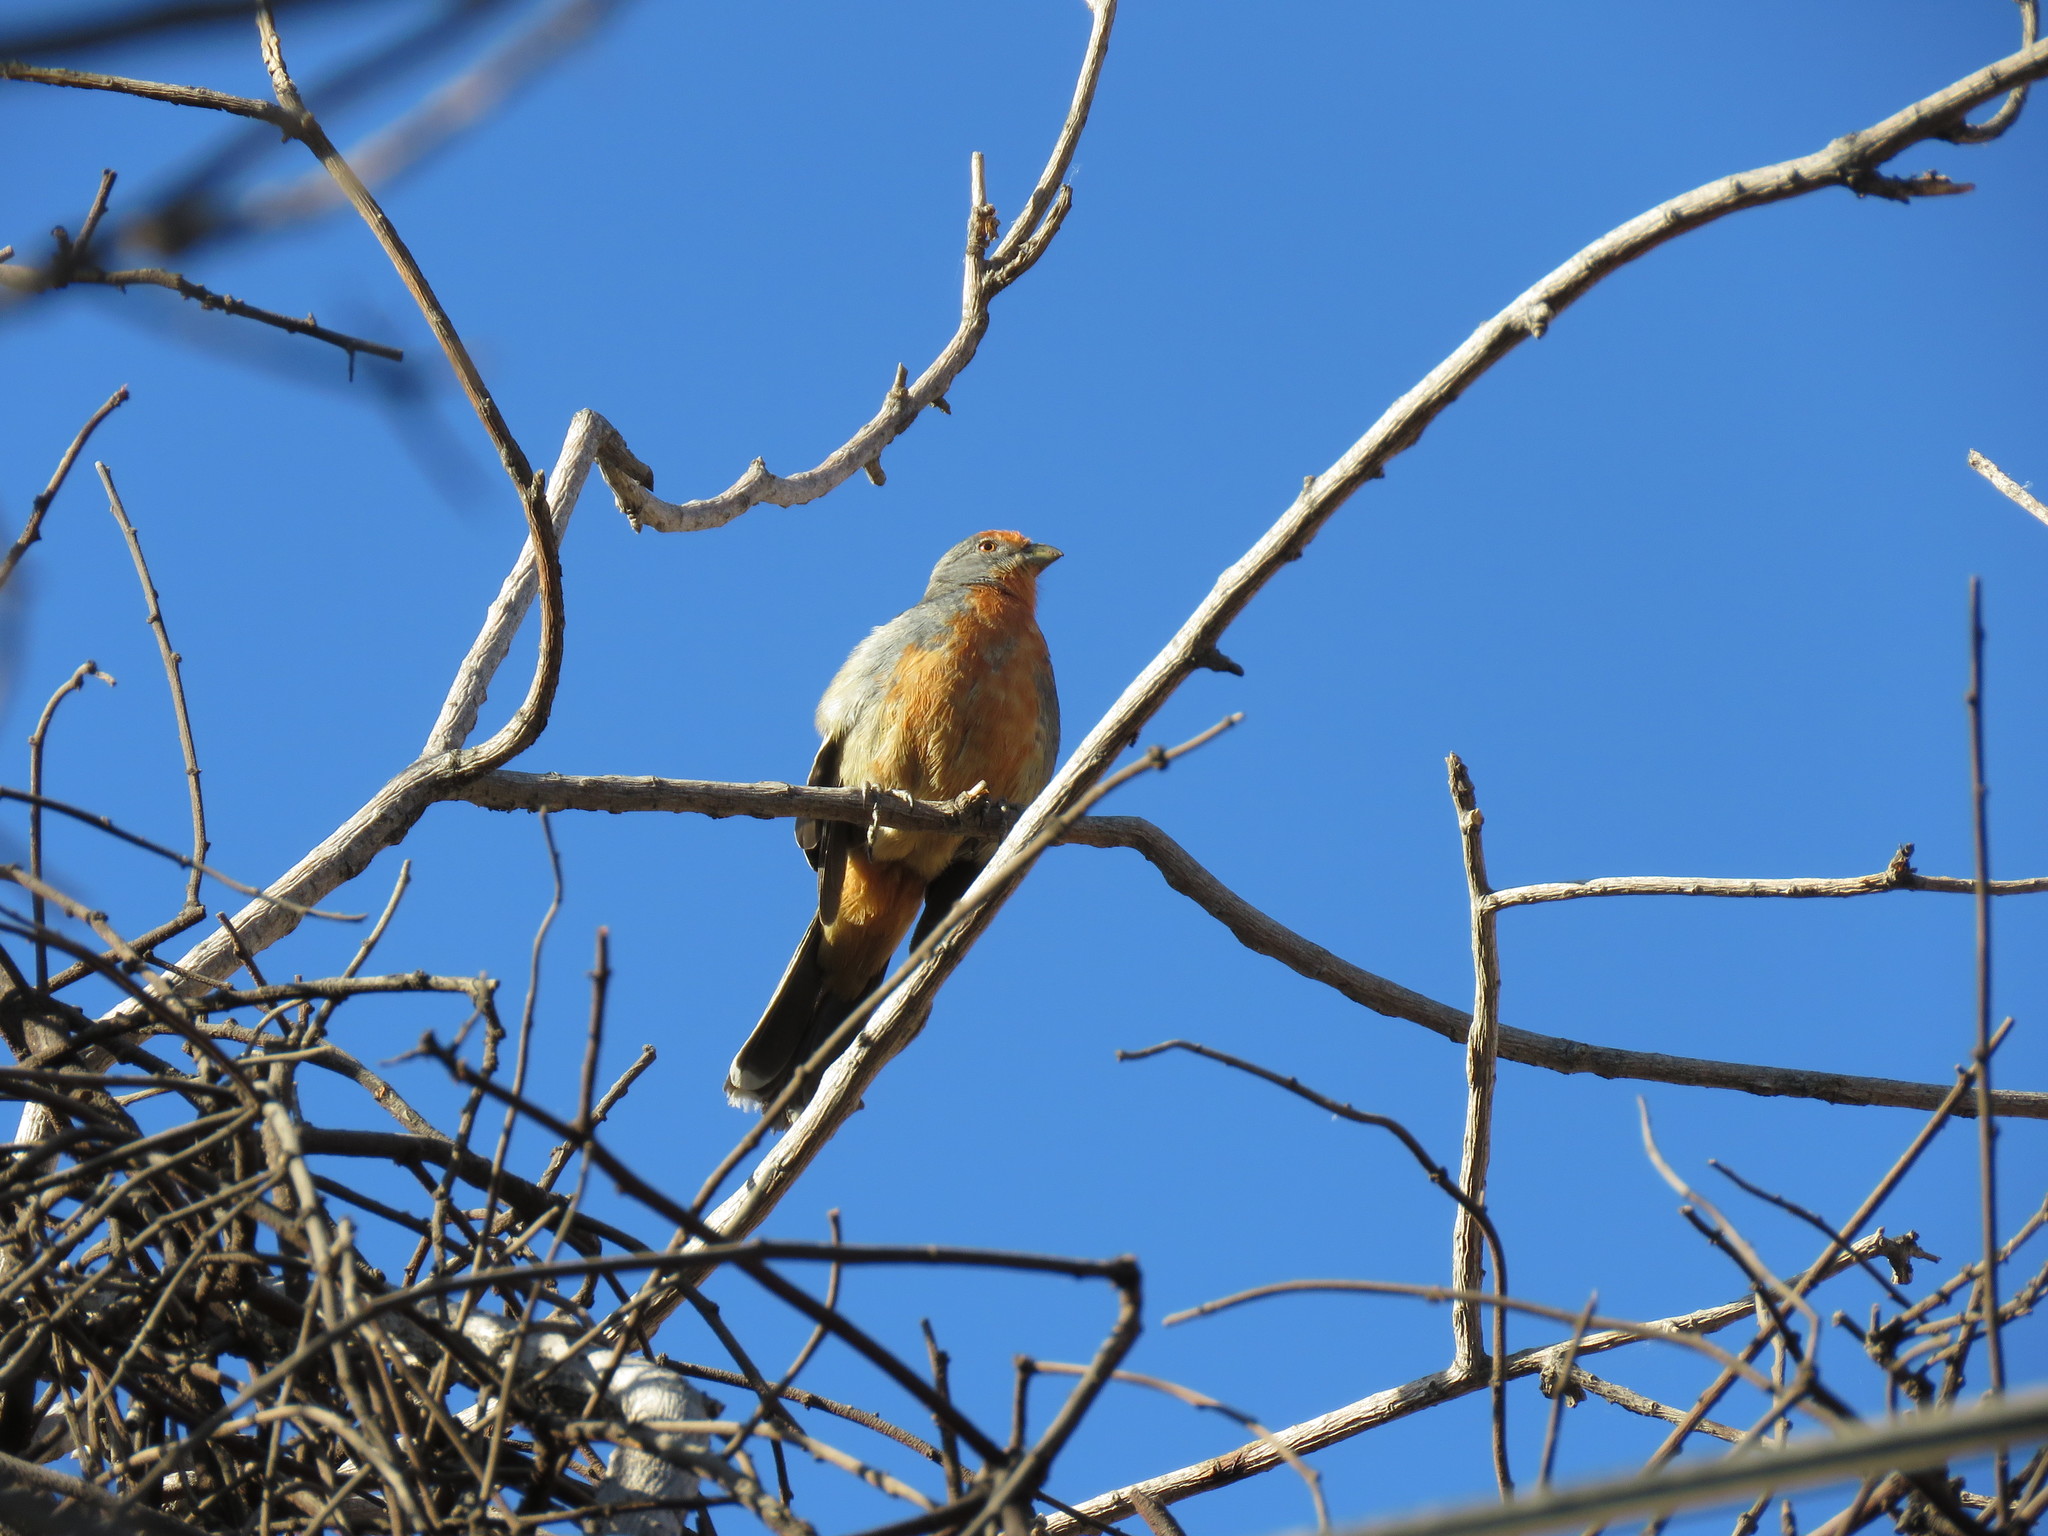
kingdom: Animalia
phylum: Chordata
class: Aves
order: Passeriformes
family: Cotingidae
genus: Phytotoma
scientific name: Phytotoma rutila
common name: White-tipped plantcutter
